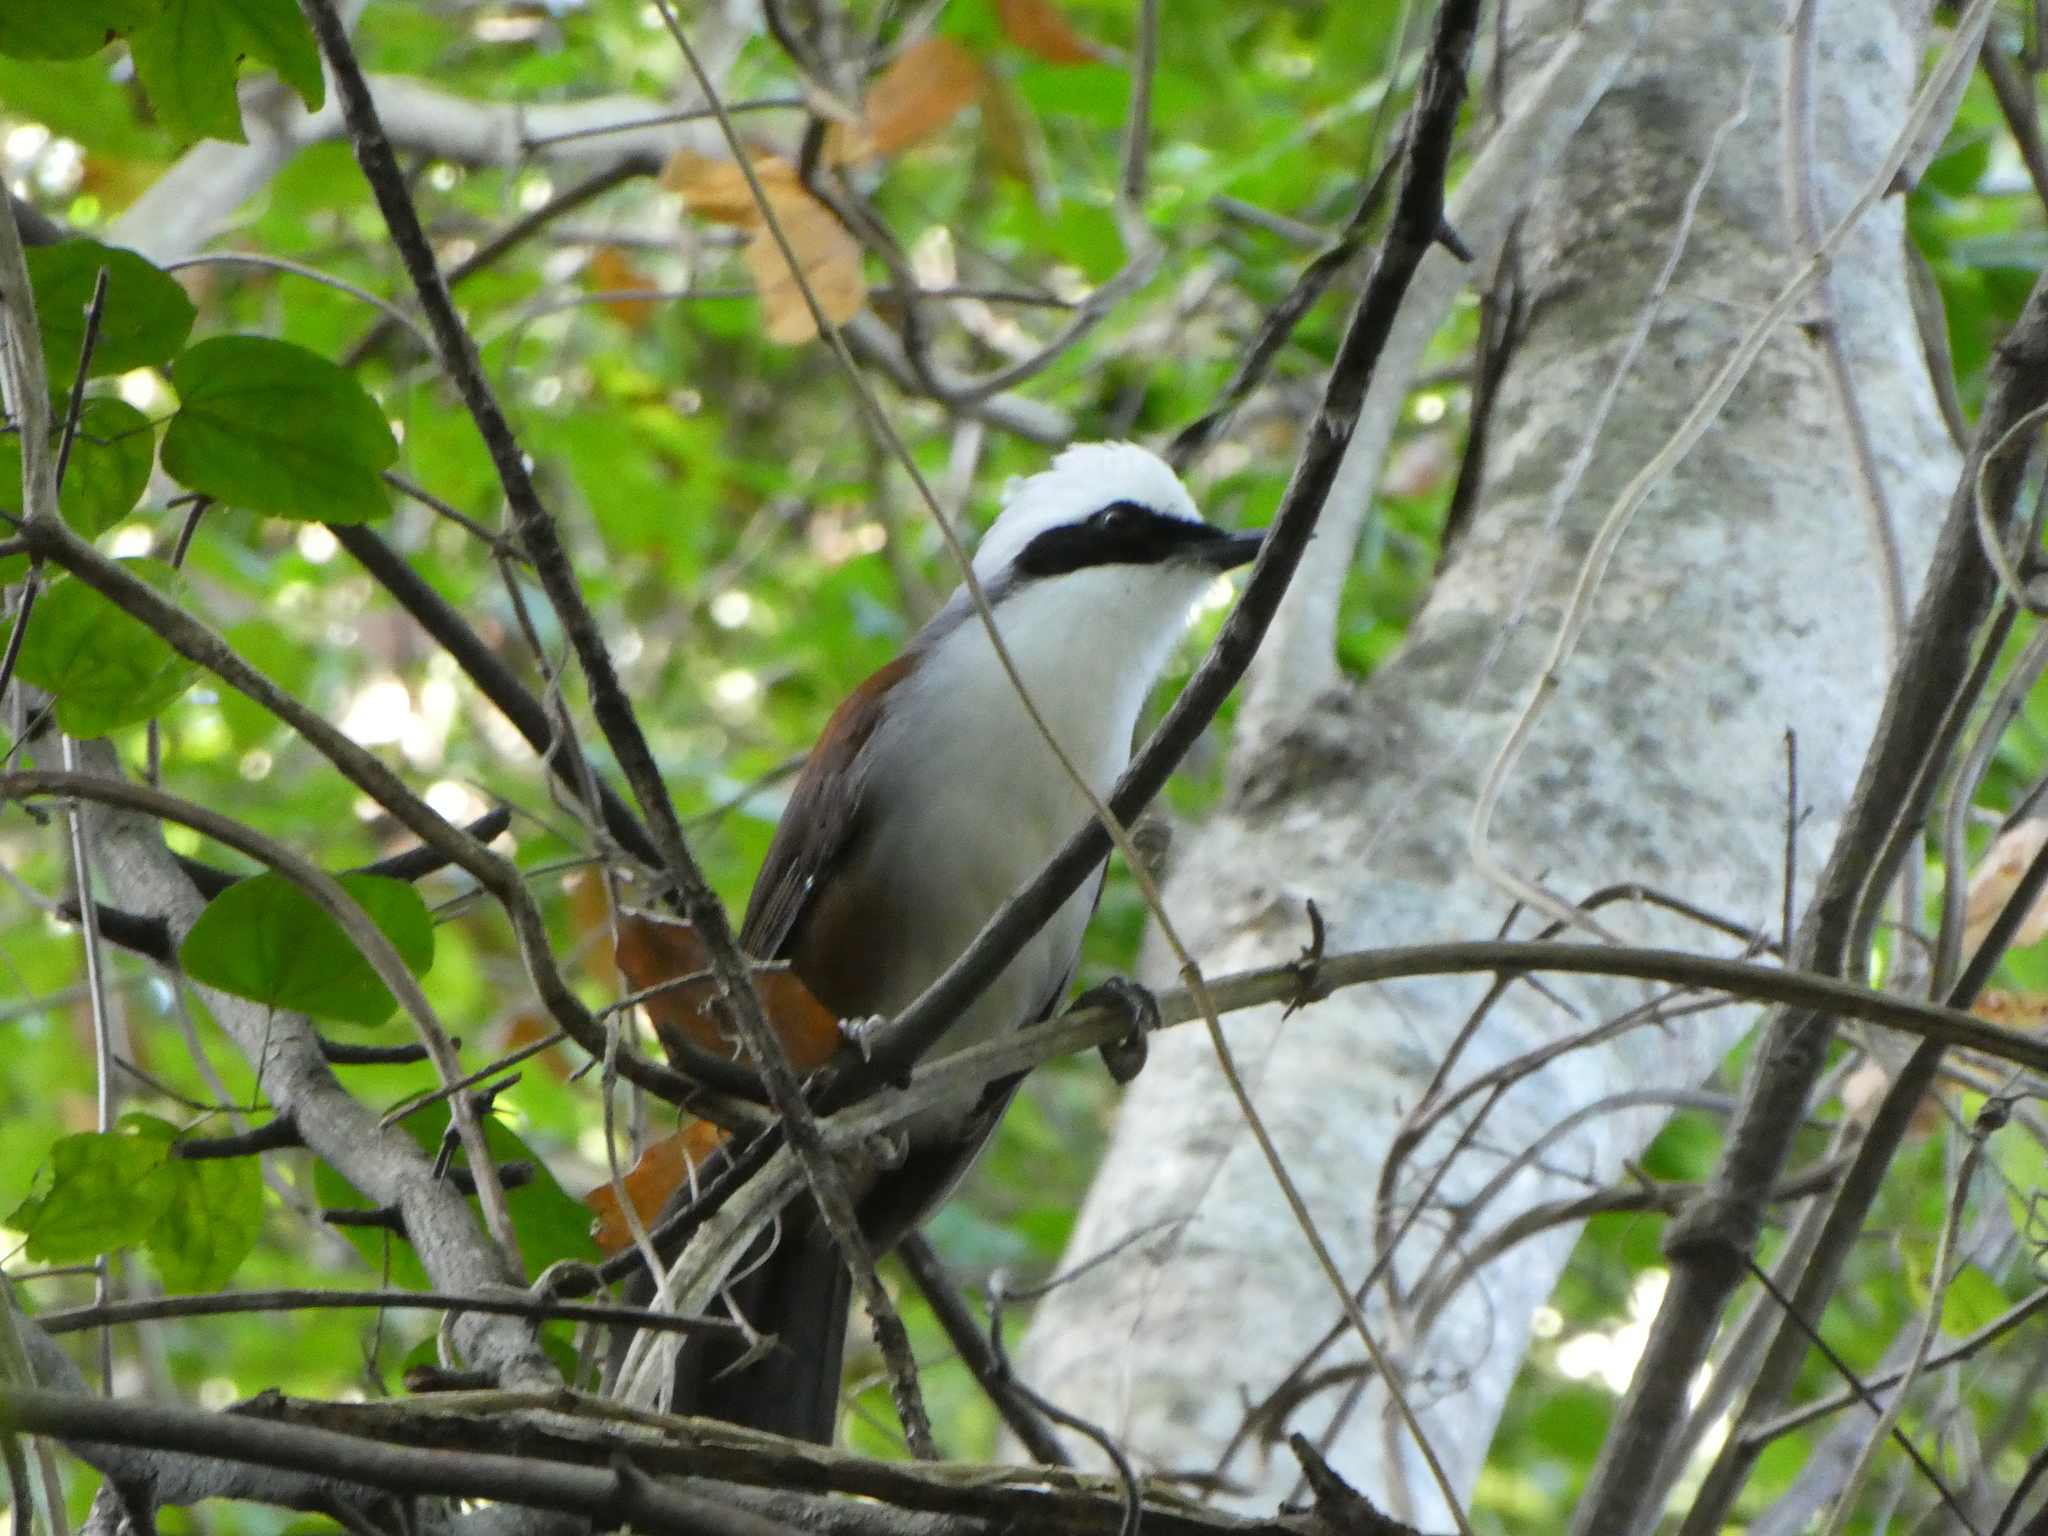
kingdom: Animalia
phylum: Chordata
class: Aves
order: Passeriformes
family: Leiothrichidae
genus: Garrulax
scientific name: Garrulax leucolophus
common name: White-crested laughingthrush
